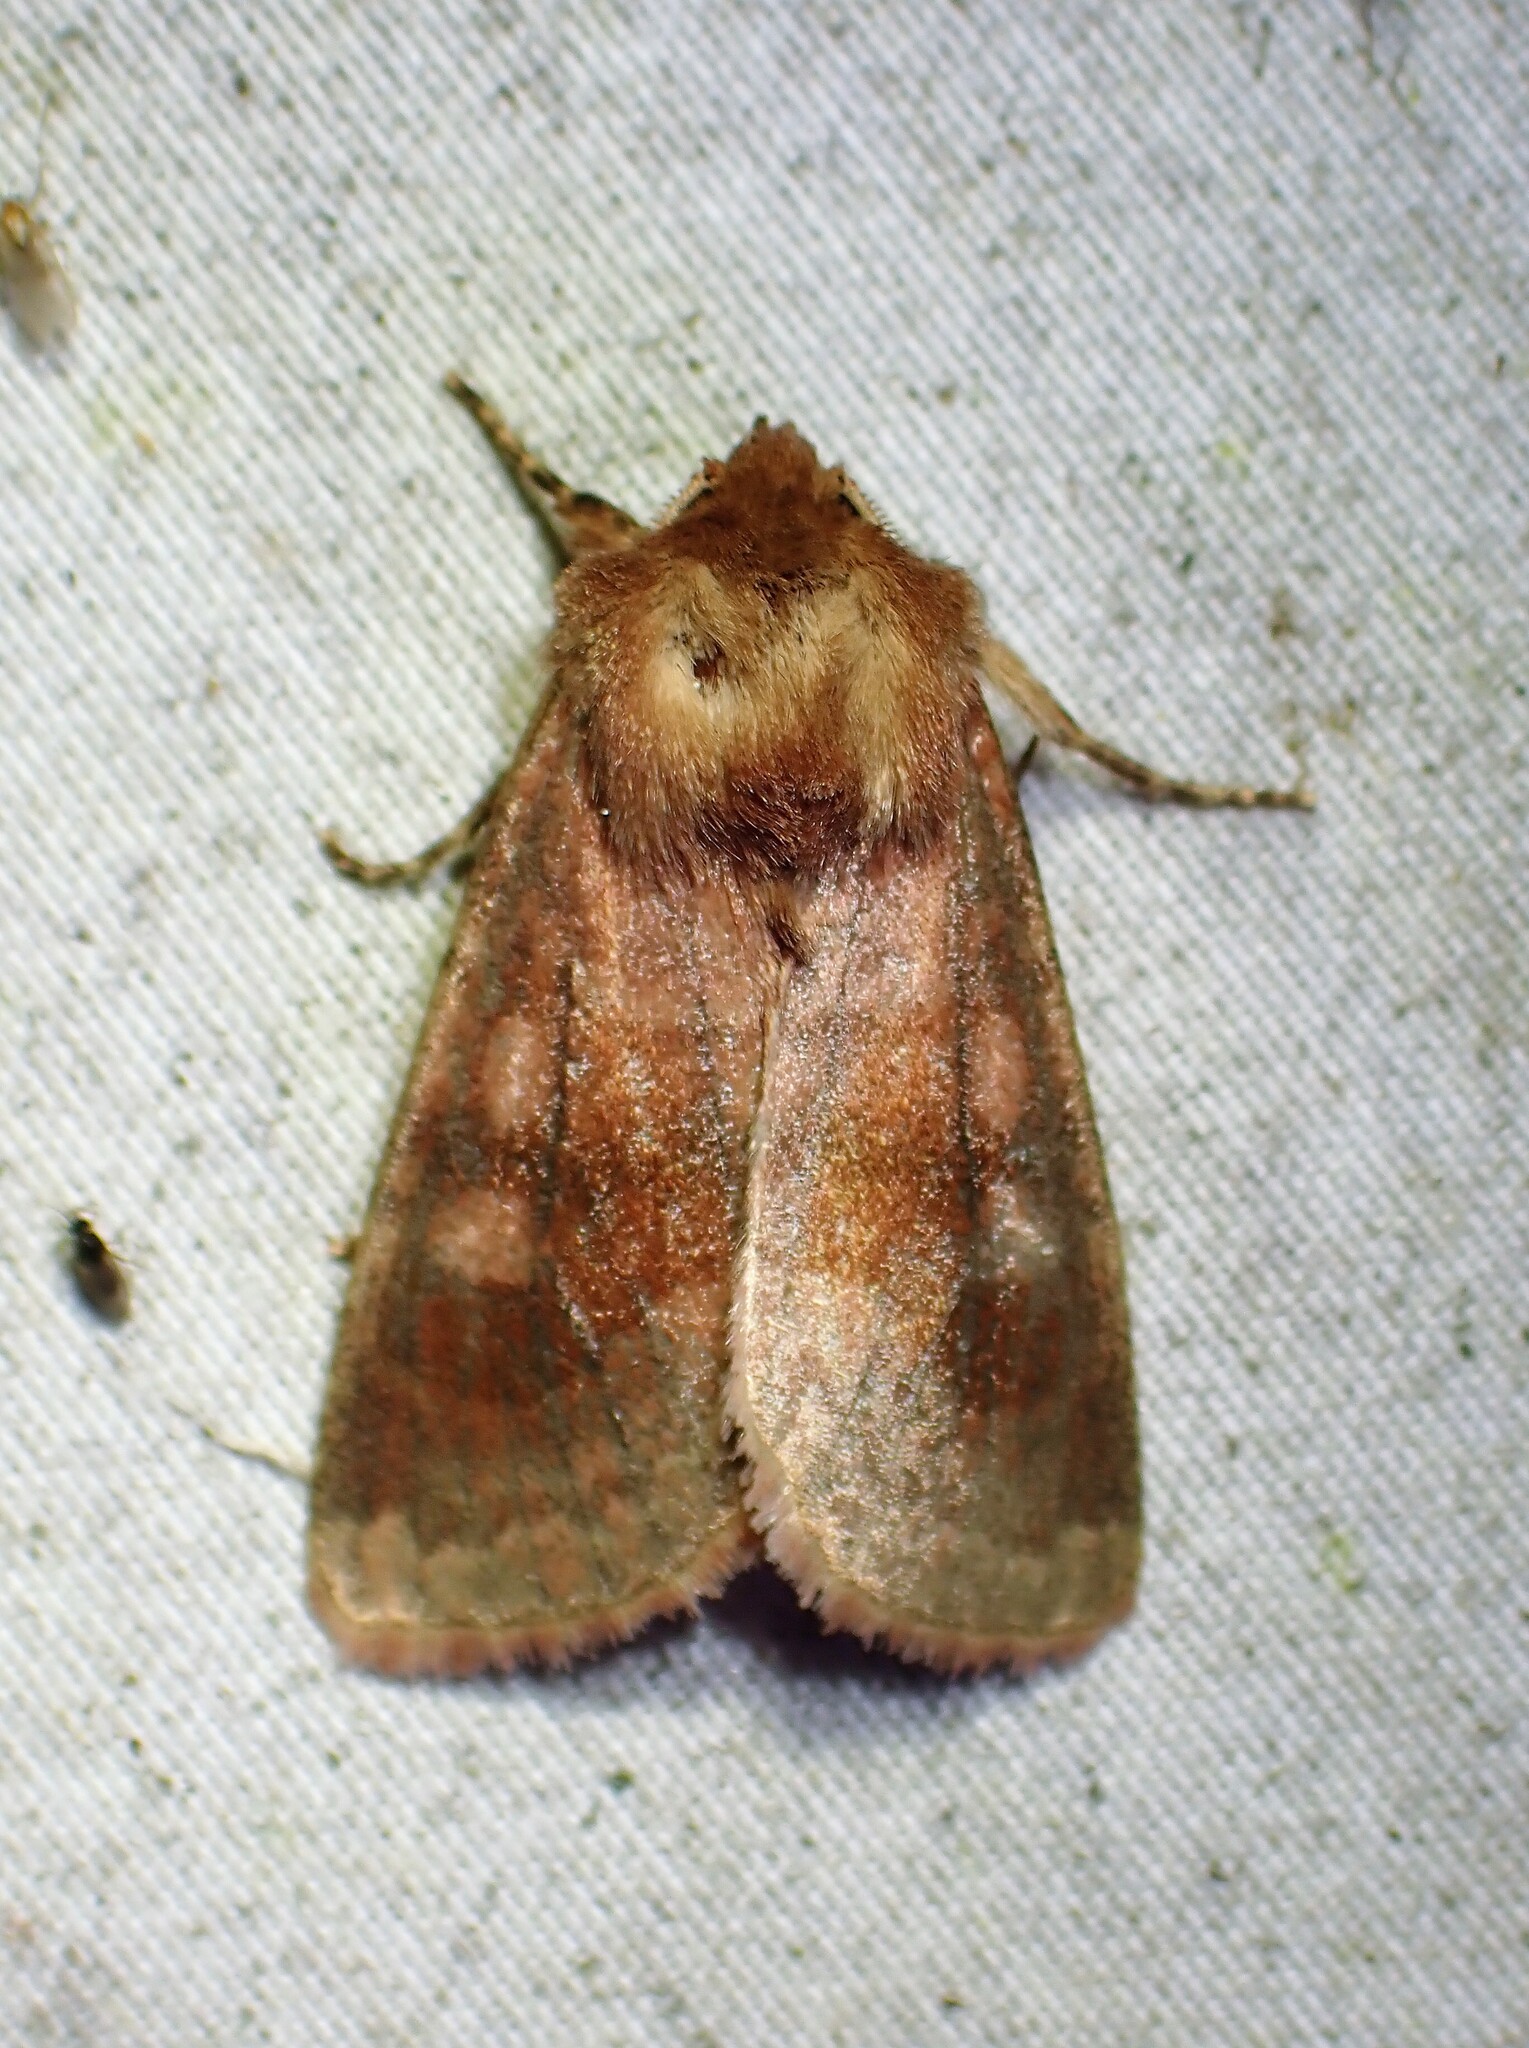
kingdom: Animalia
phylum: Arthropoda
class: Insecta
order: Lepidoptera
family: Noctuidae
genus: Nephelodes
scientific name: Nephelodes minians
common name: Bronzed cutworm
